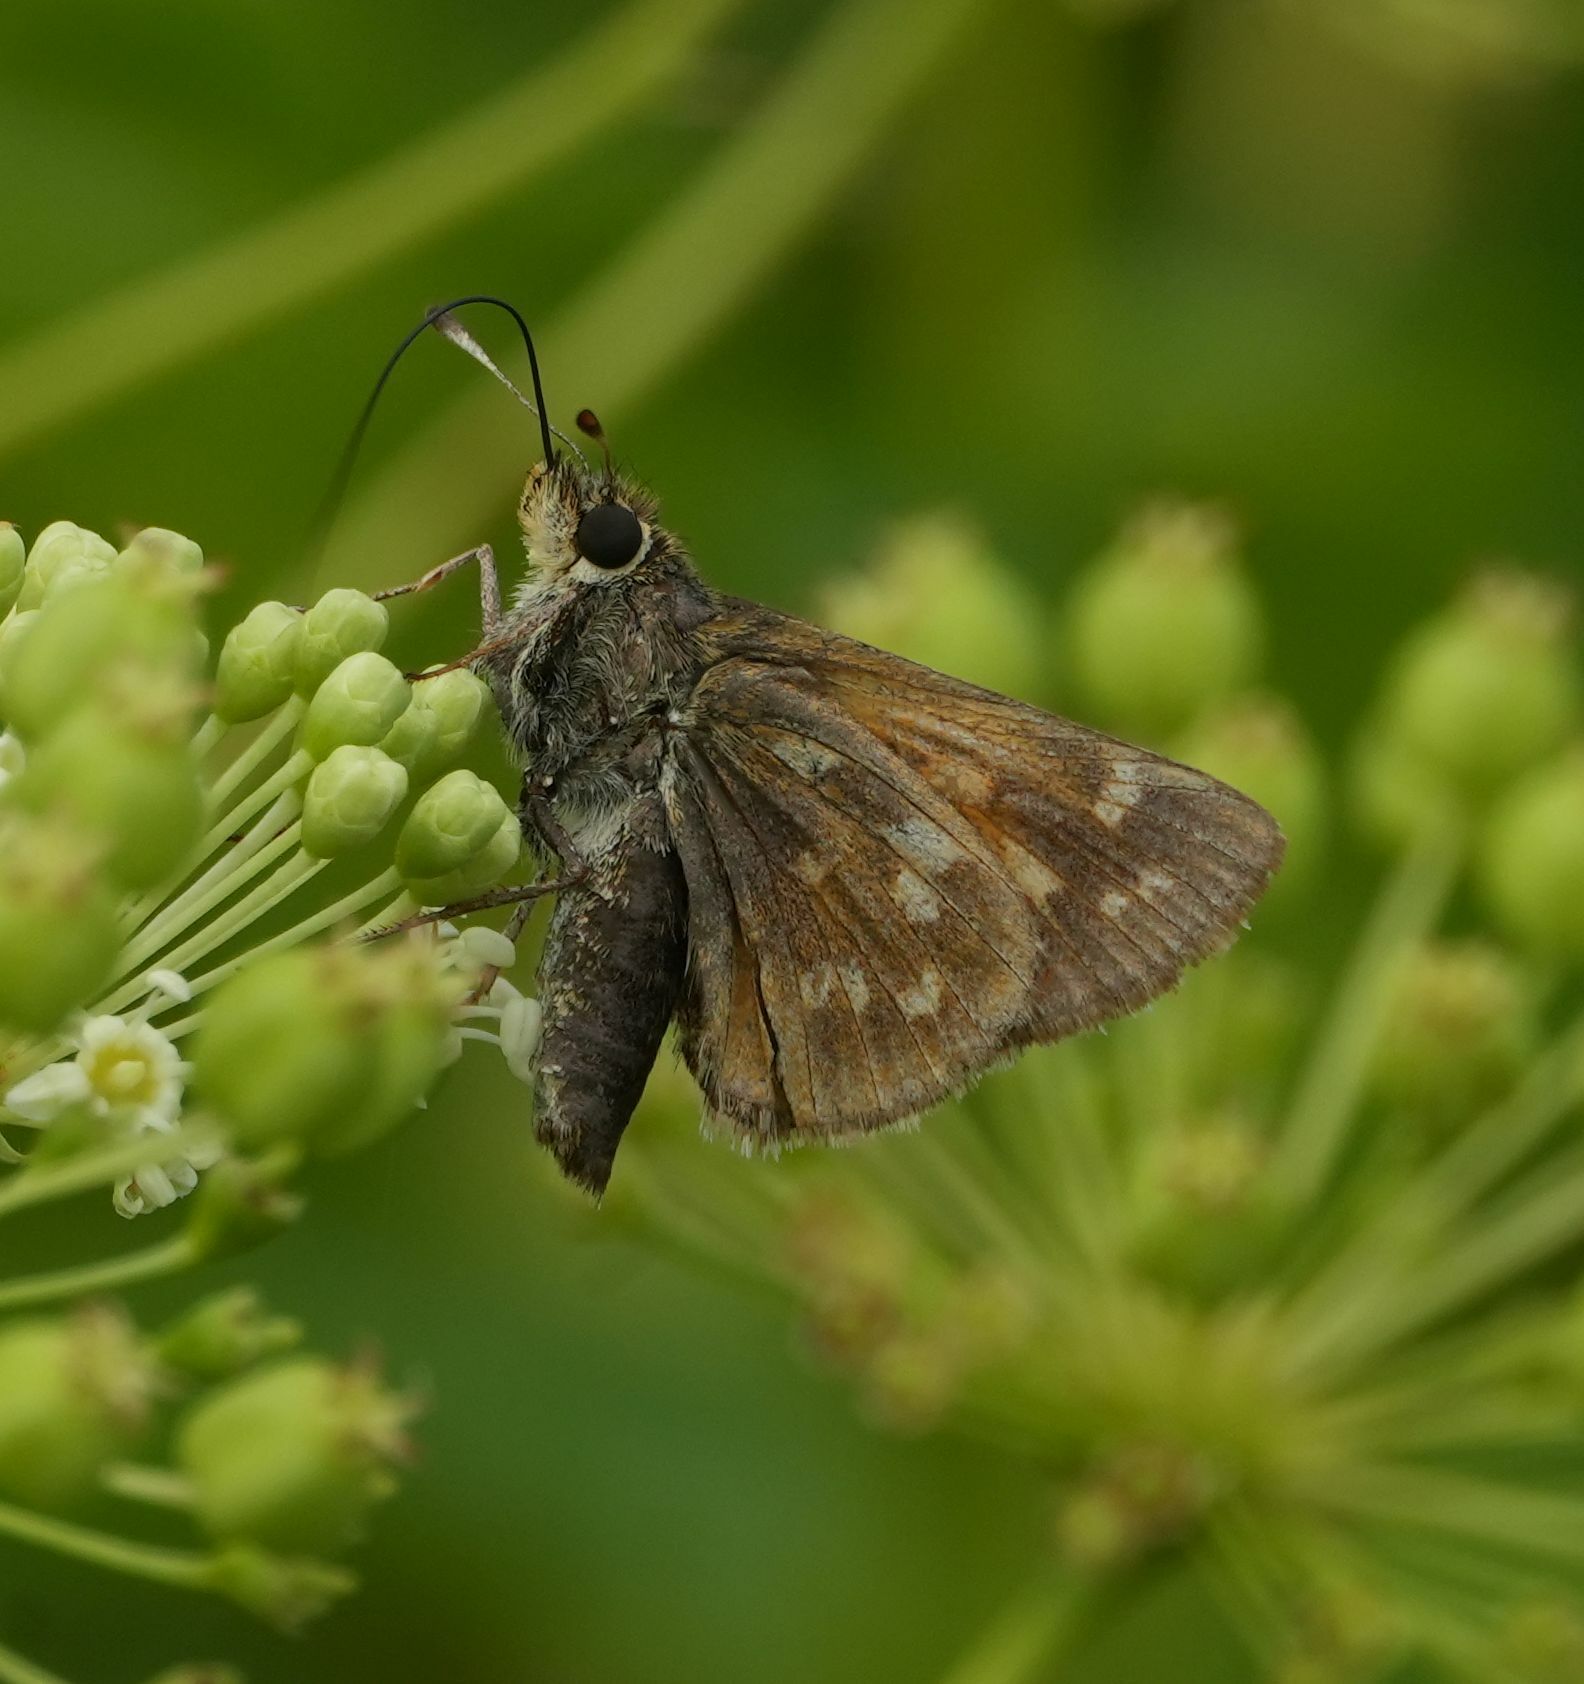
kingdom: Animalia
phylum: Arthropoda
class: Insecta
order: Lepidoptera
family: Hesperiidae
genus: Hesperia
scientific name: Hesperia sassacus
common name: Indian skipper
